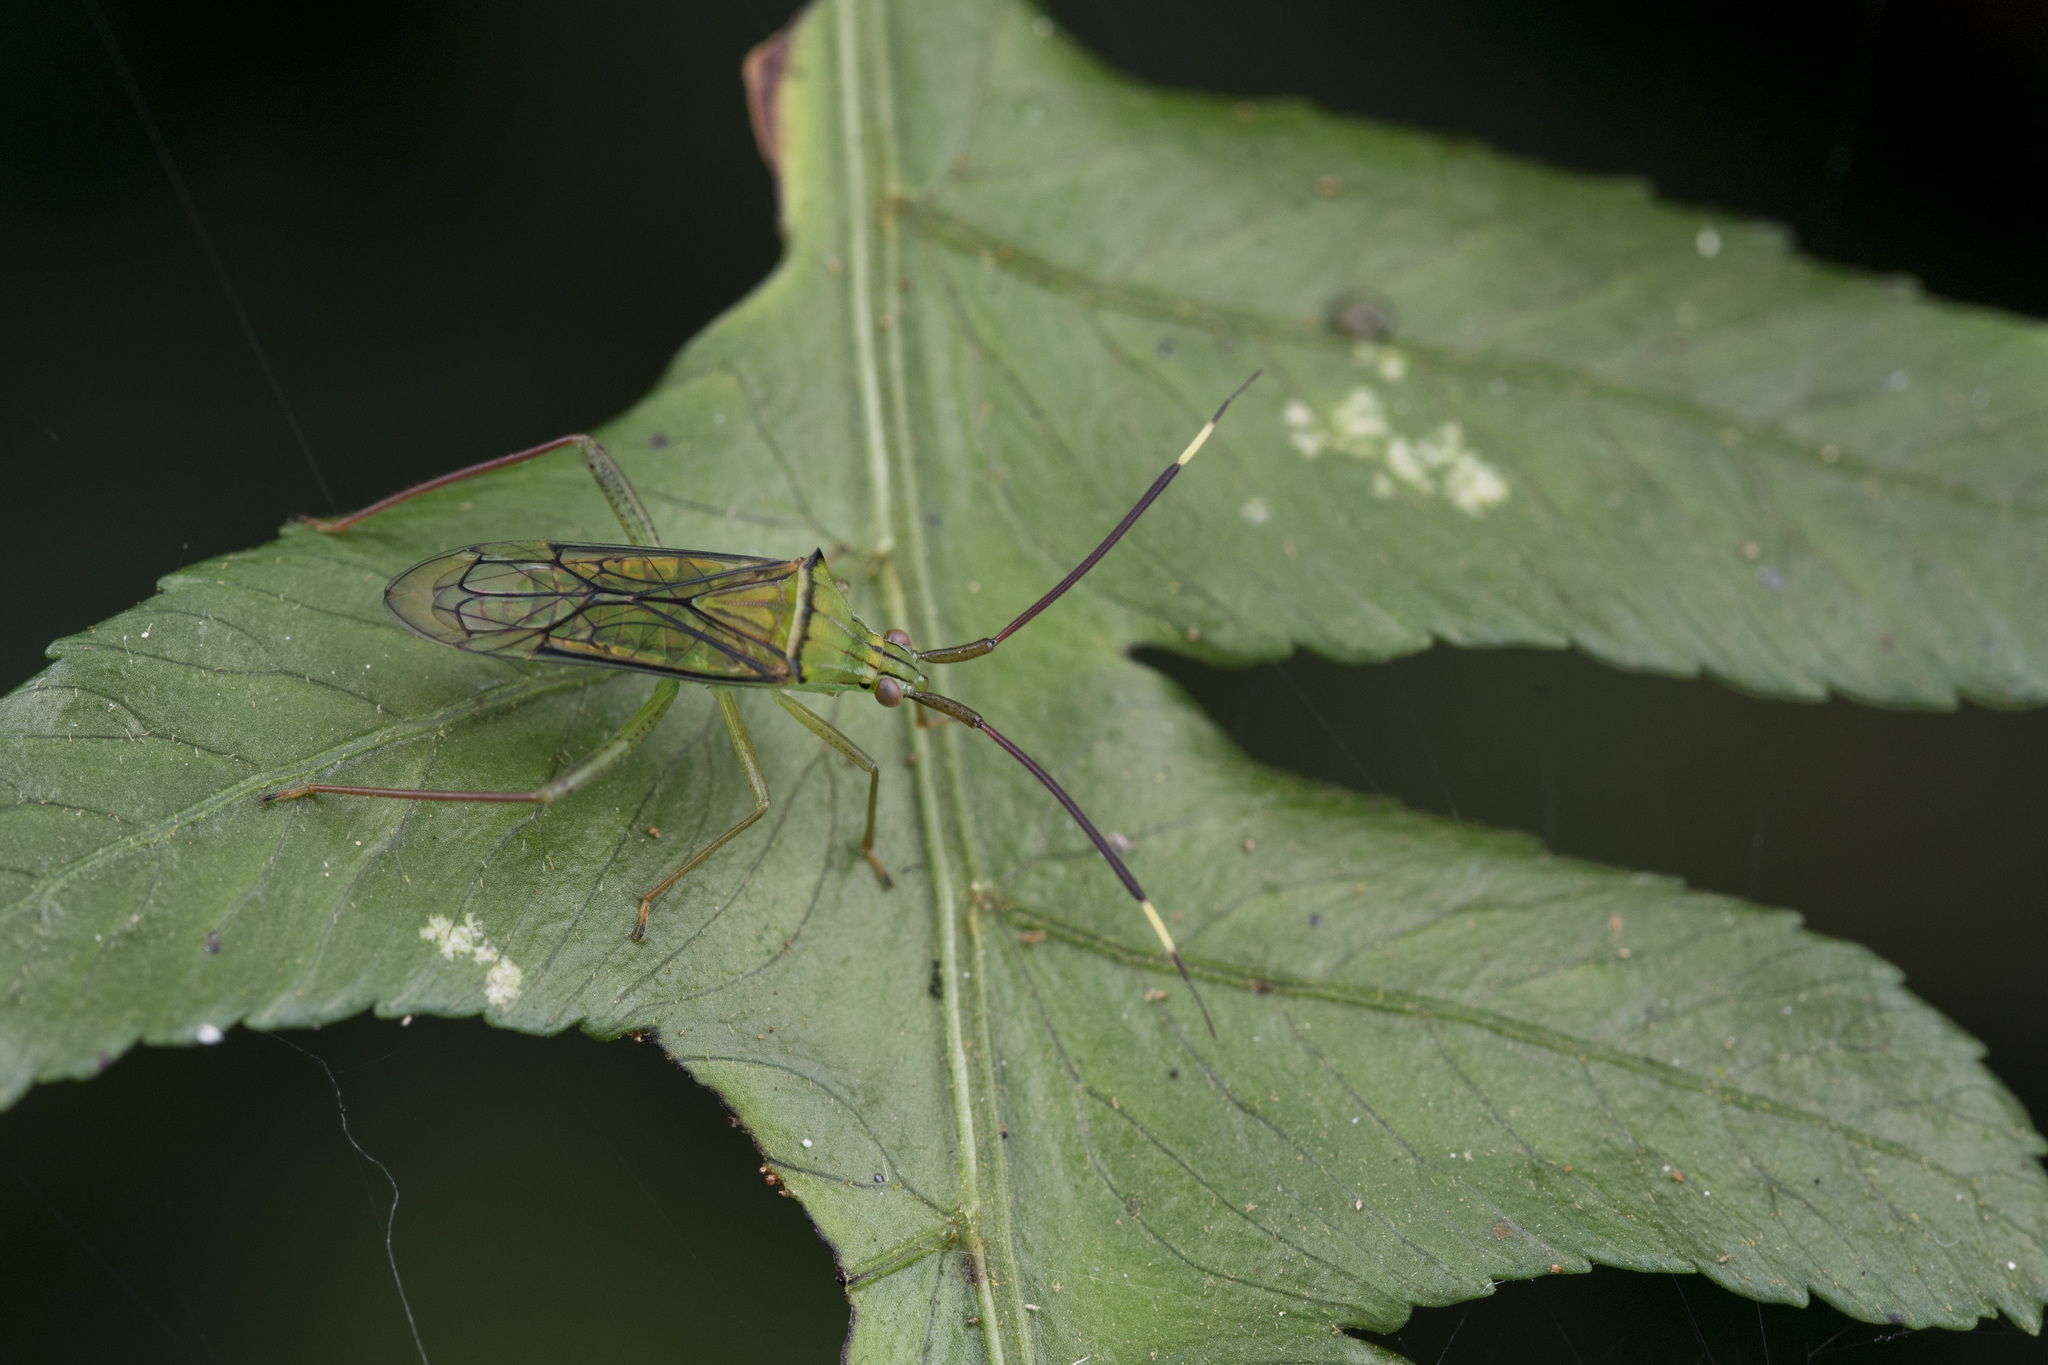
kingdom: Animalia
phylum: Arthropoda
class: Insecta
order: Hemiptera
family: Miridae
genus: Hyalopeplus
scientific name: Hyalopeplus spinosus
